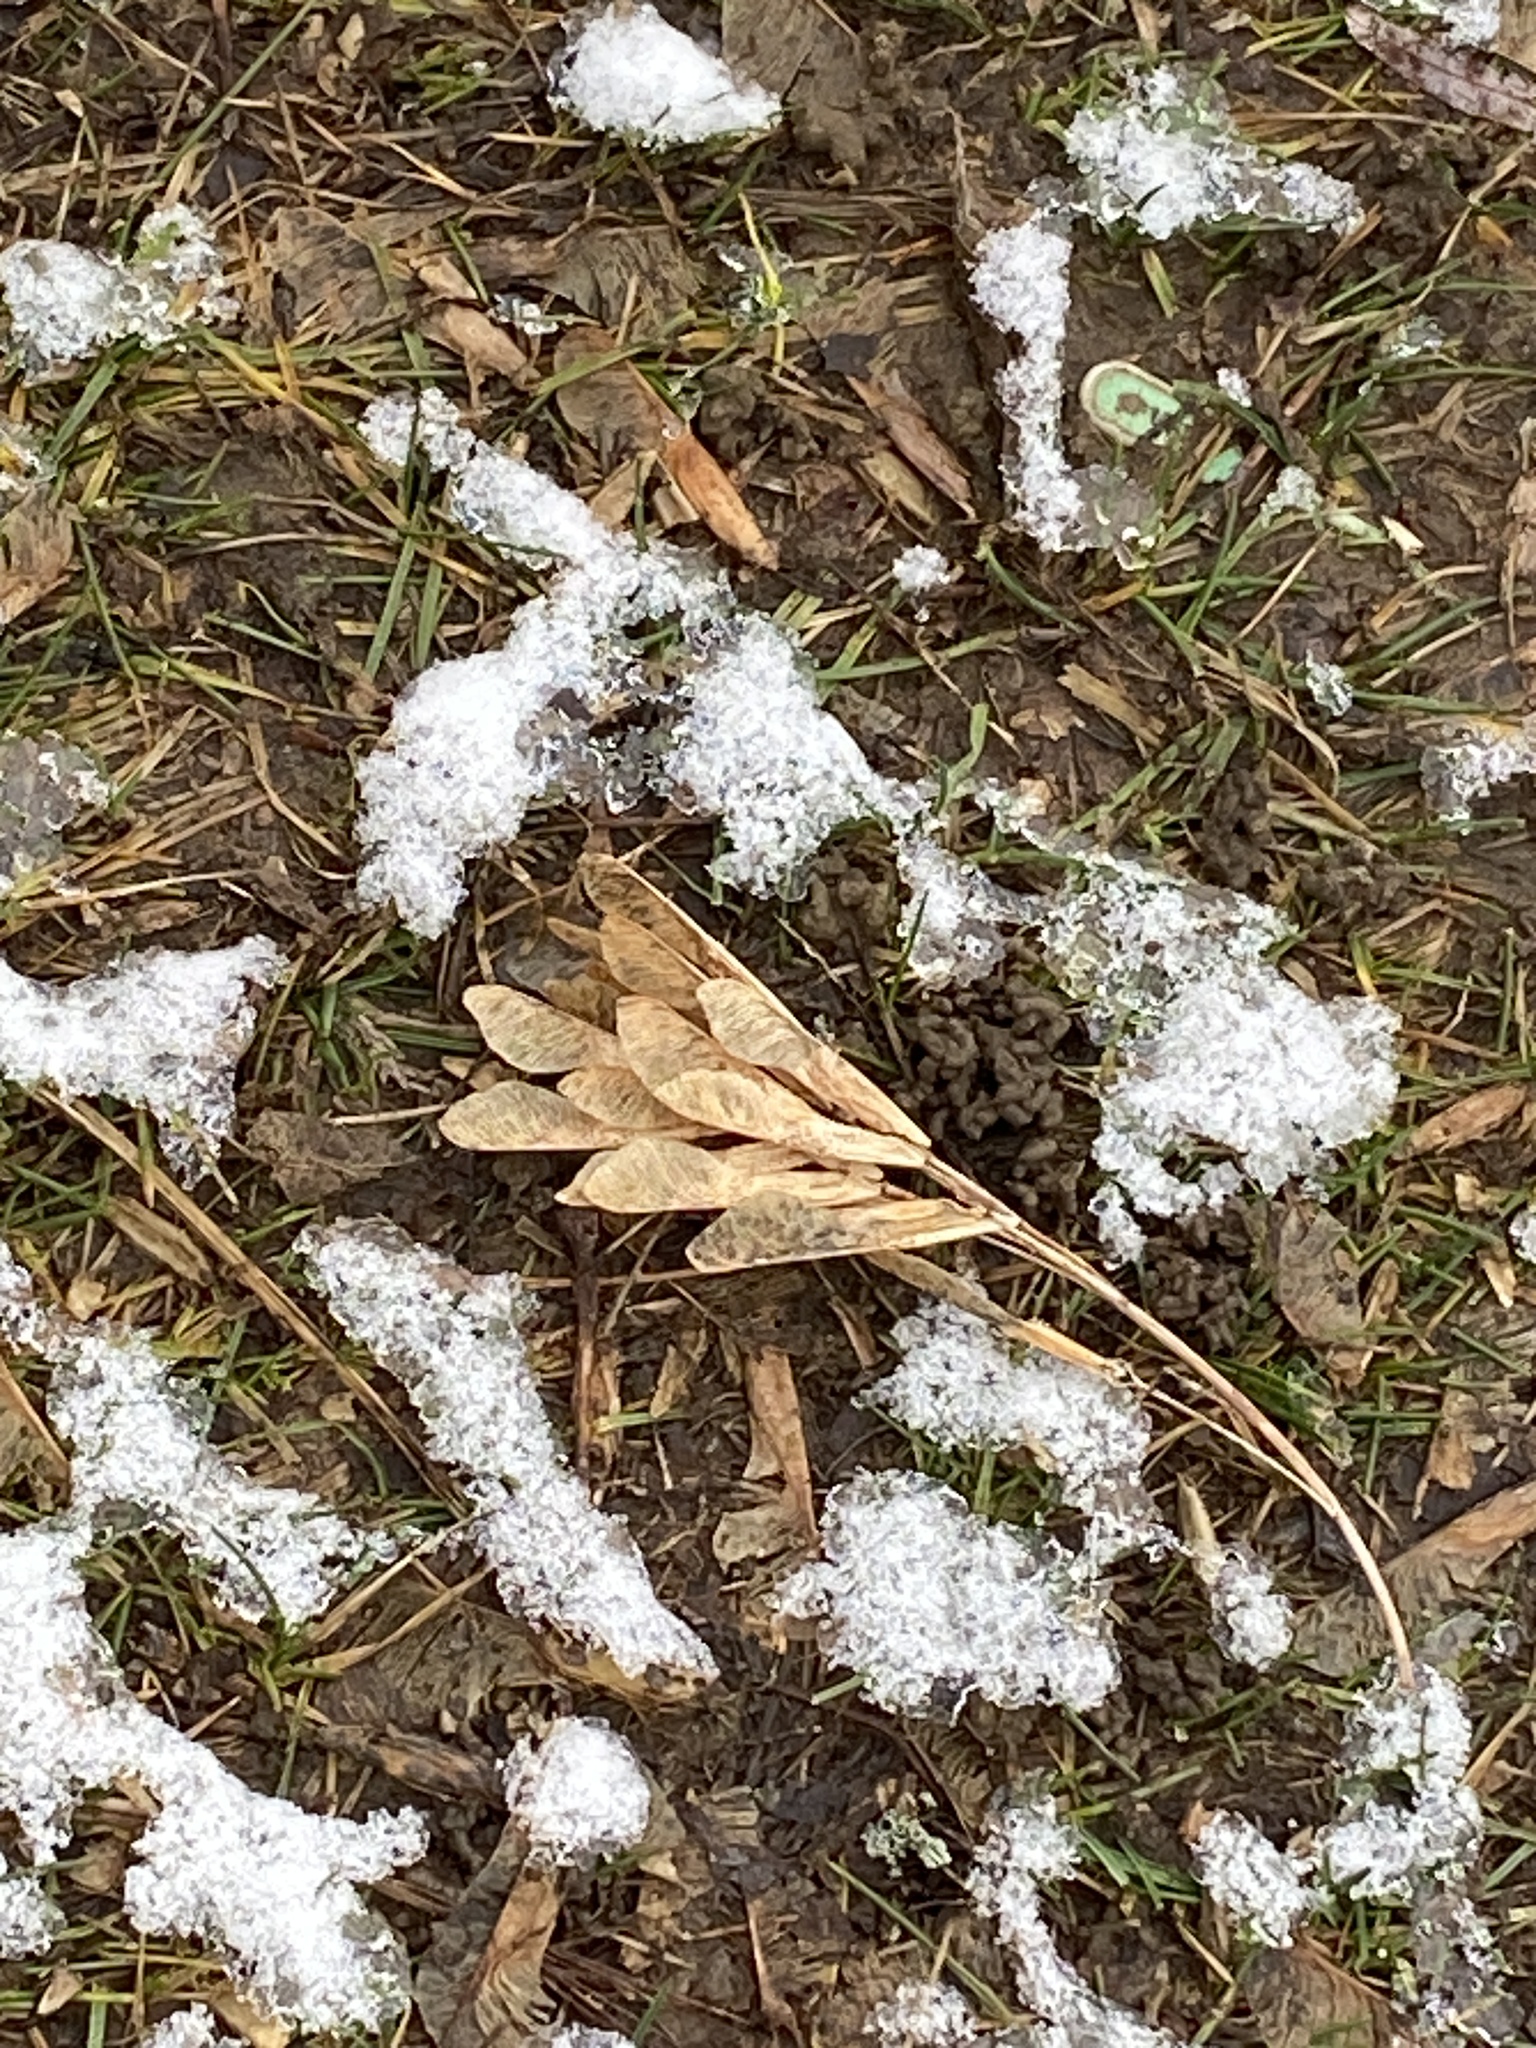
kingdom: Plantae
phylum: Tracheophyta
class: Magnoliopsida
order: Sapindales
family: Sapindaceae
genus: Acer
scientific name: Acer negundo
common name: Ashleaf maple
